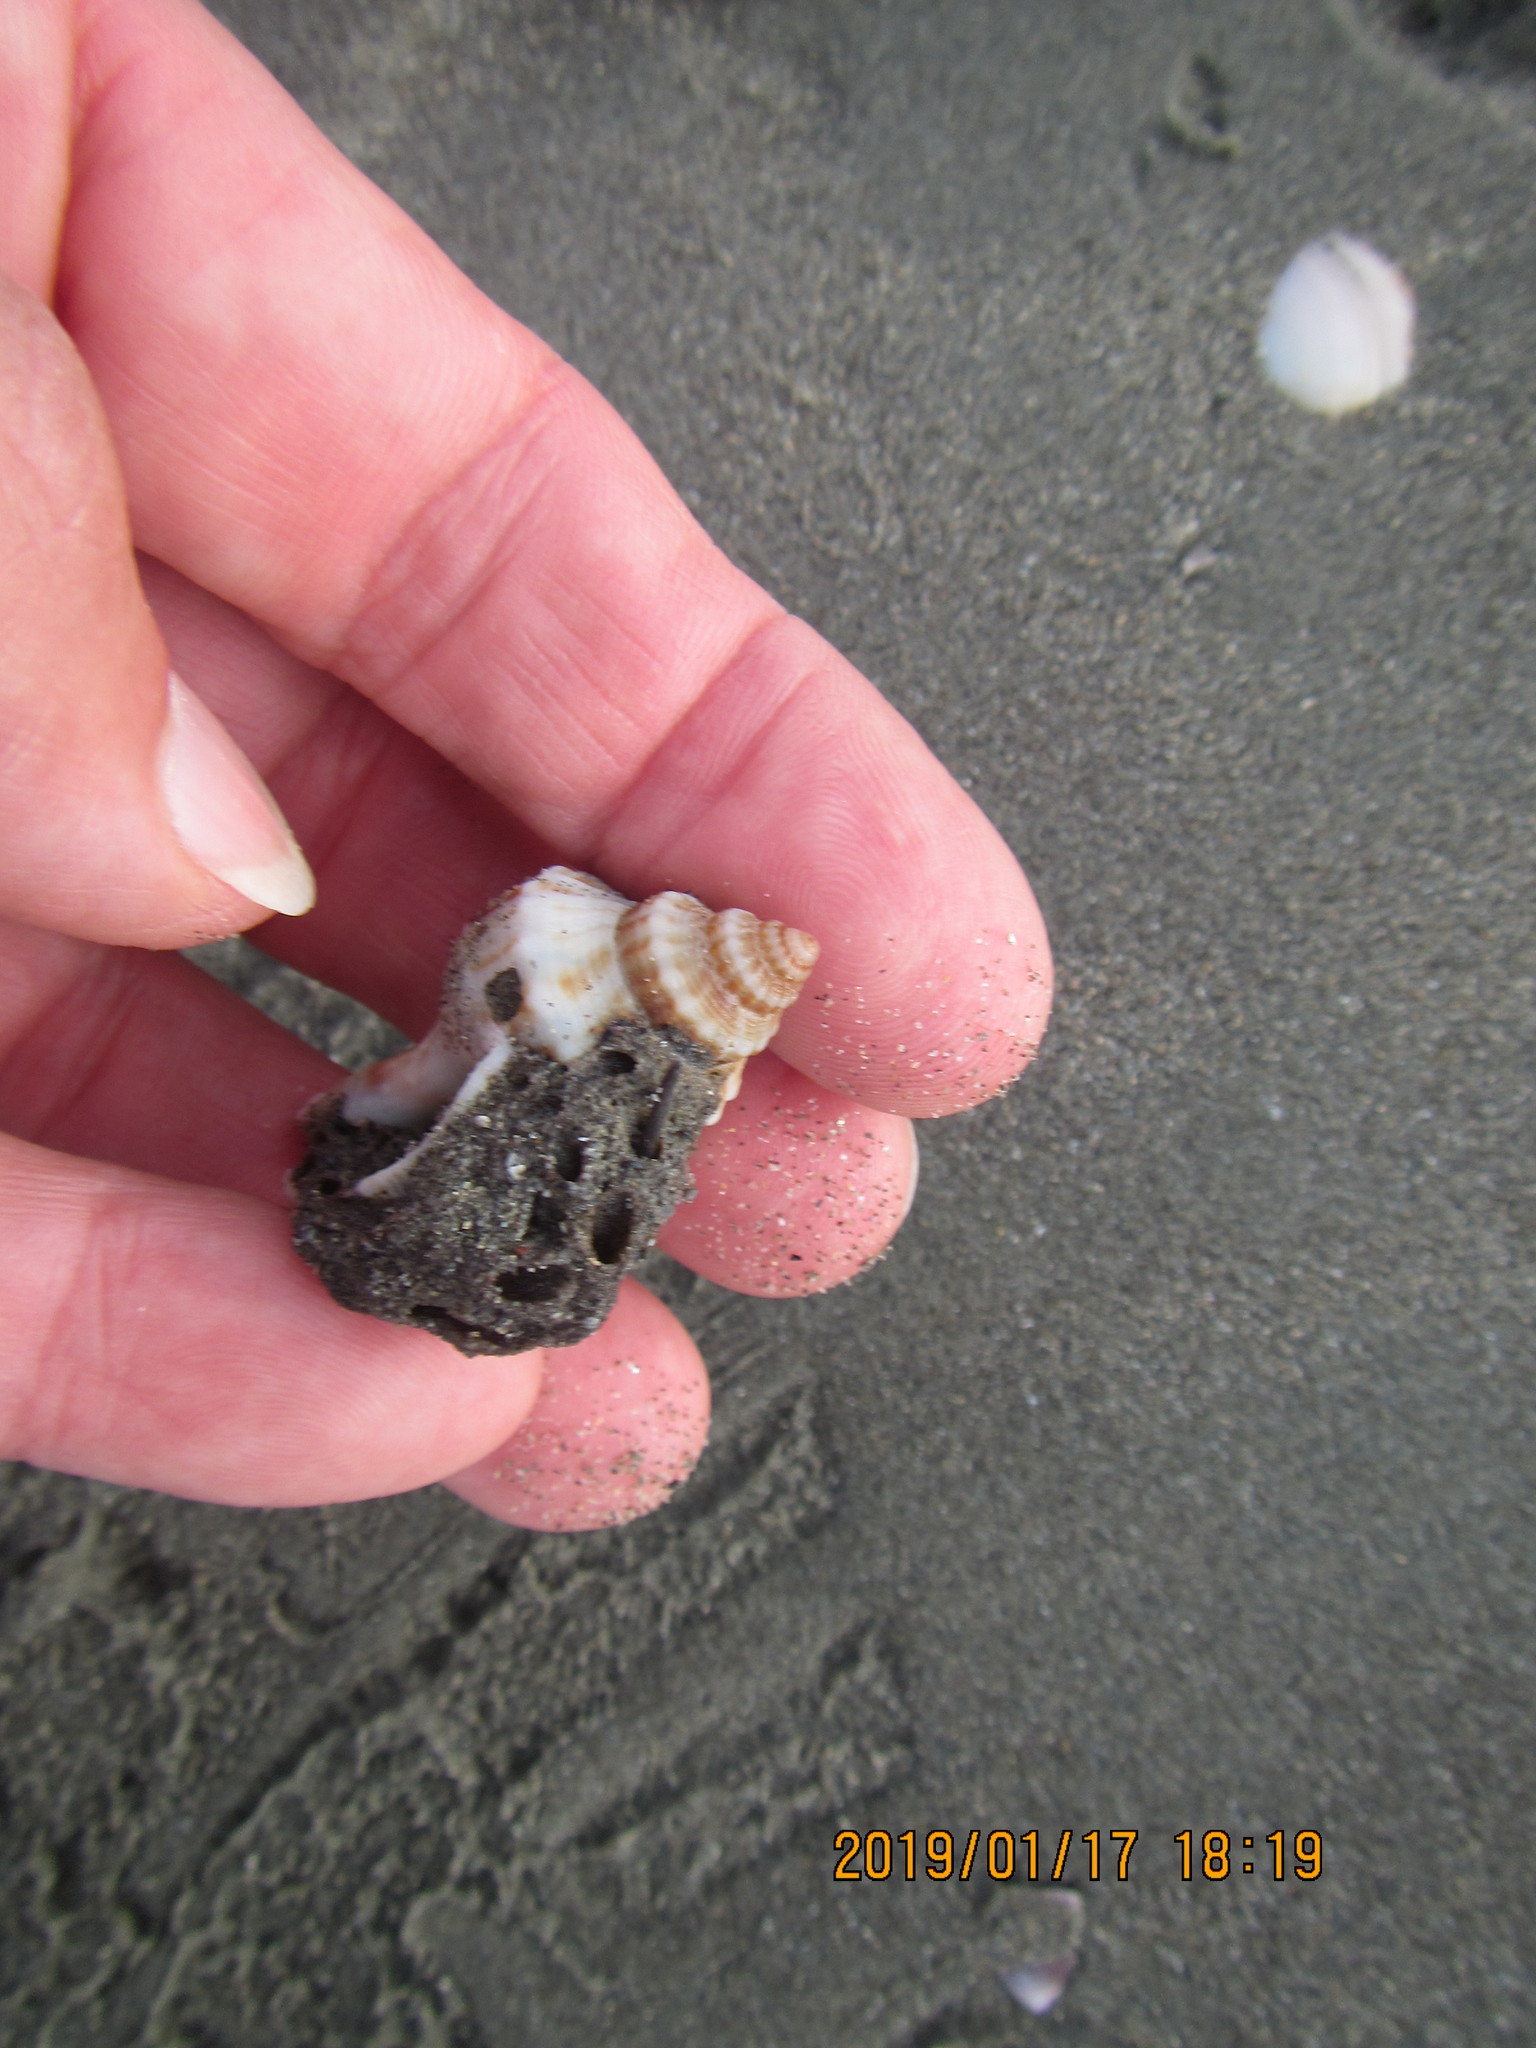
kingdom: Animalia
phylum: Mollusca
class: Gastropoda
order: Neogastropoda
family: Prosiphonidae
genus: Austrofusus
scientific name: Austrofusus glans
